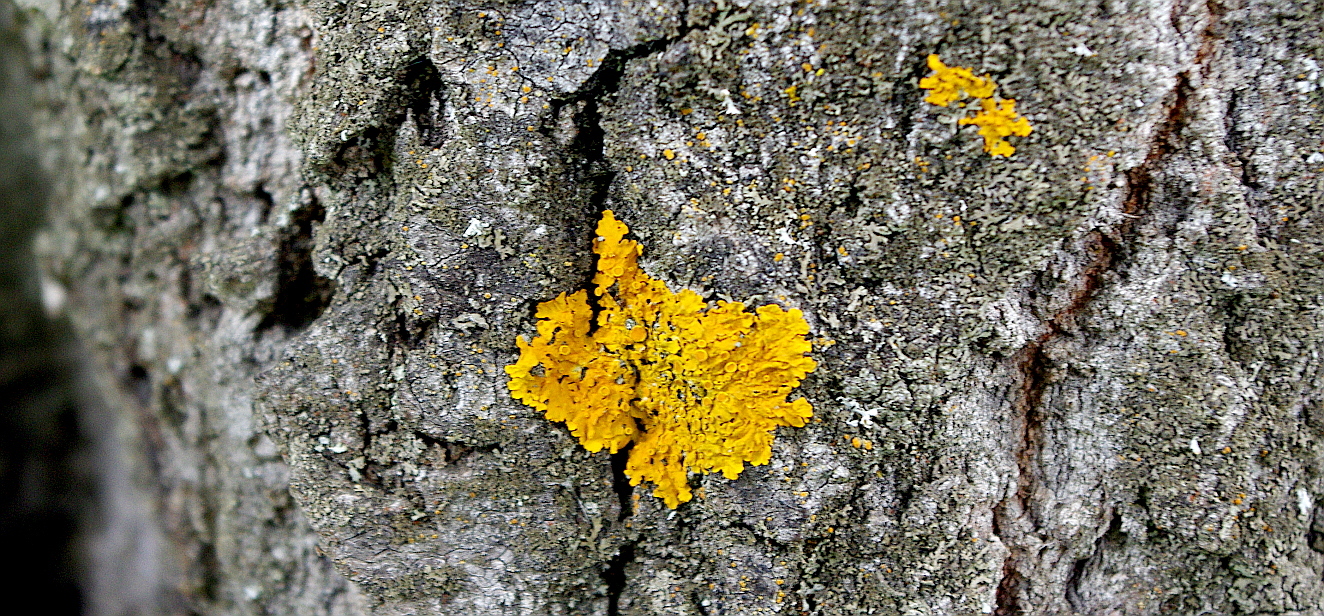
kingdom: Fungi
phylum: Ascomycota
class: Lecanoromycetes
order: Teloschistales
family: Teloschistaceae
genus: Xanthoria
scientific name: Xanthoria parietina
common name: Common orange lichen
